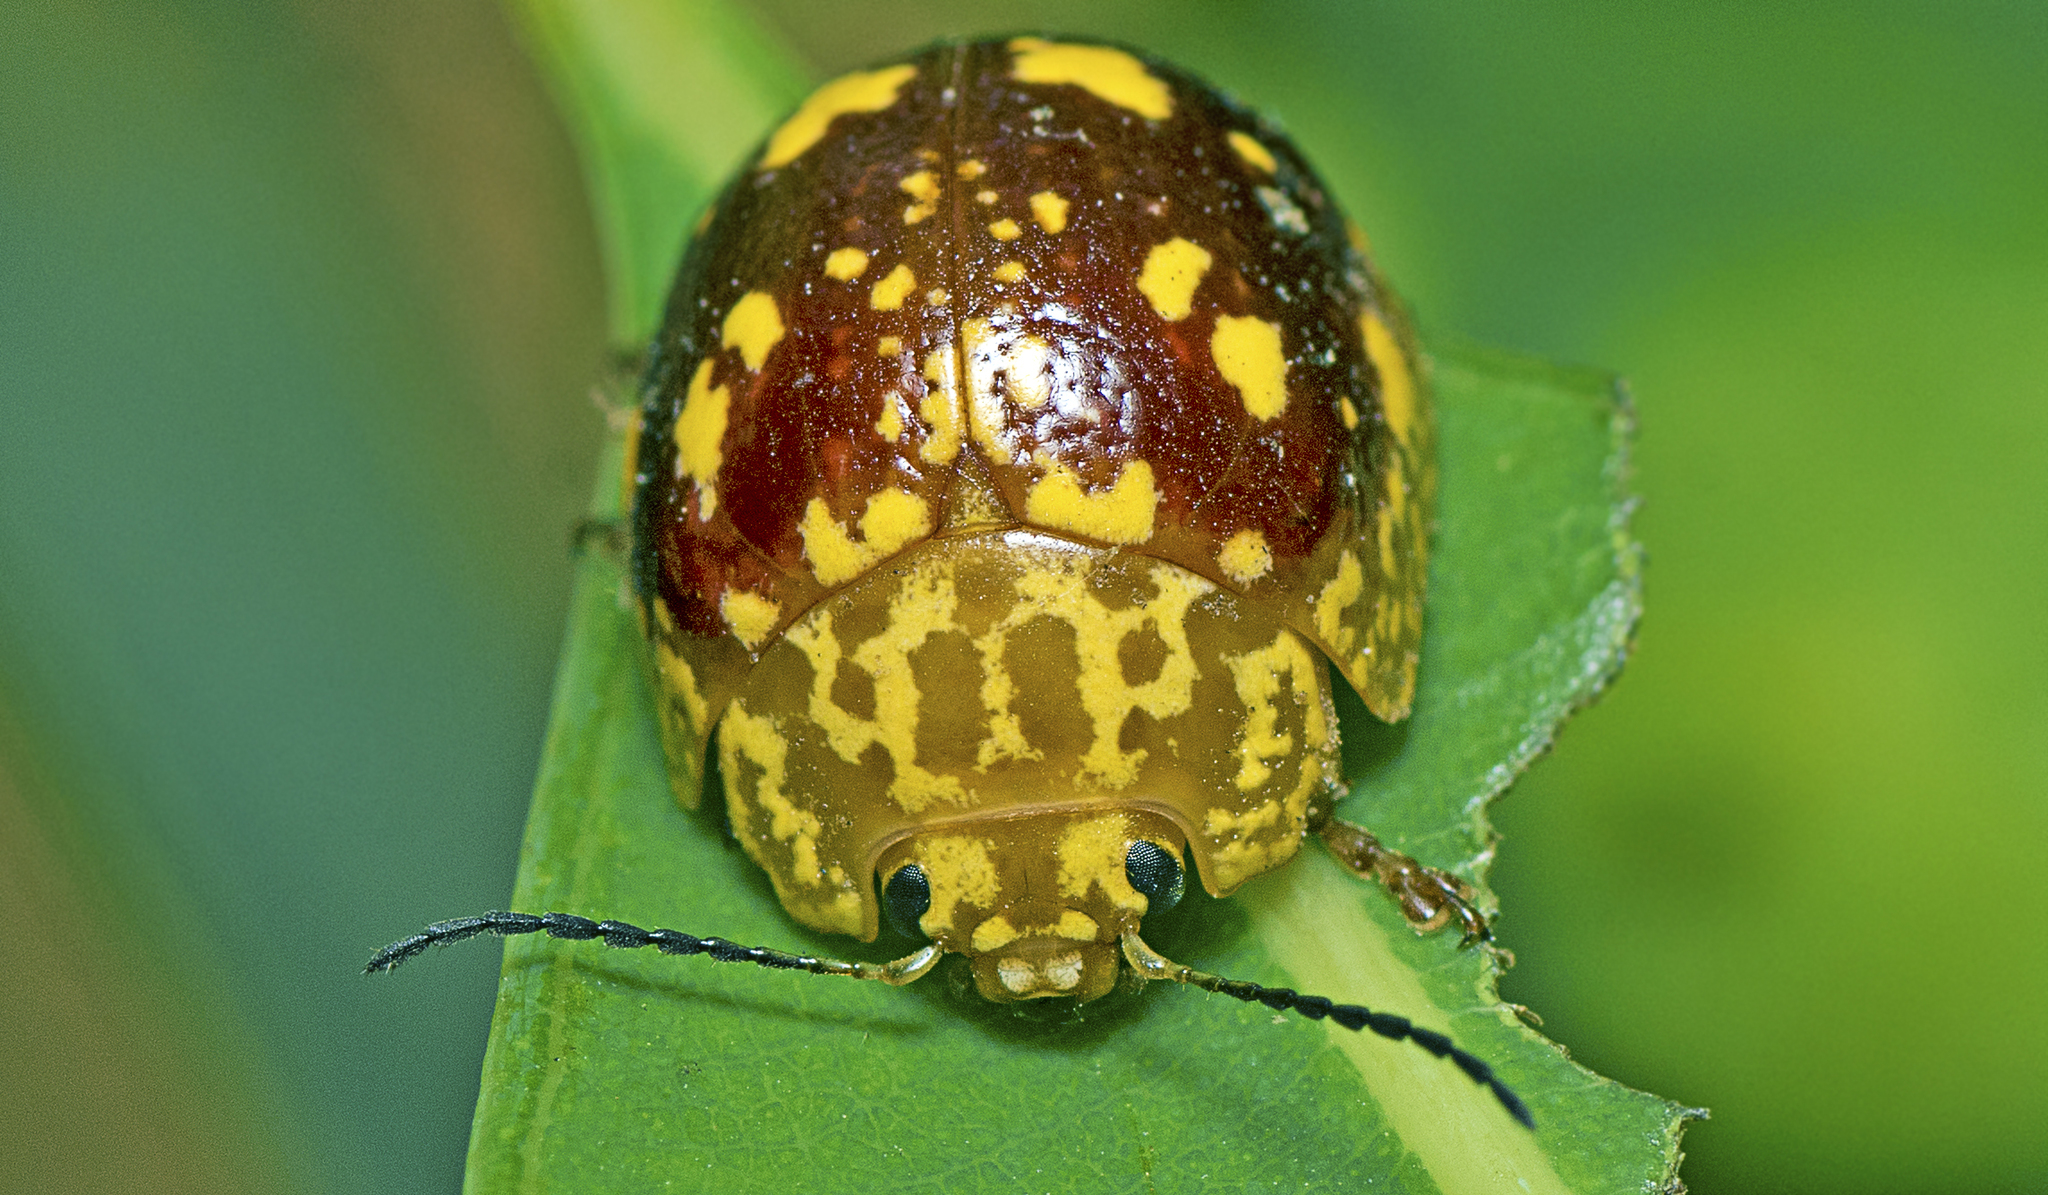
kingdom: Animalia
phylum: Arthropoda
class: Insecta
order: Coleoptera
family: Chrysomelidae
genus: Paropsis
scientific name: Paropsis maculata
